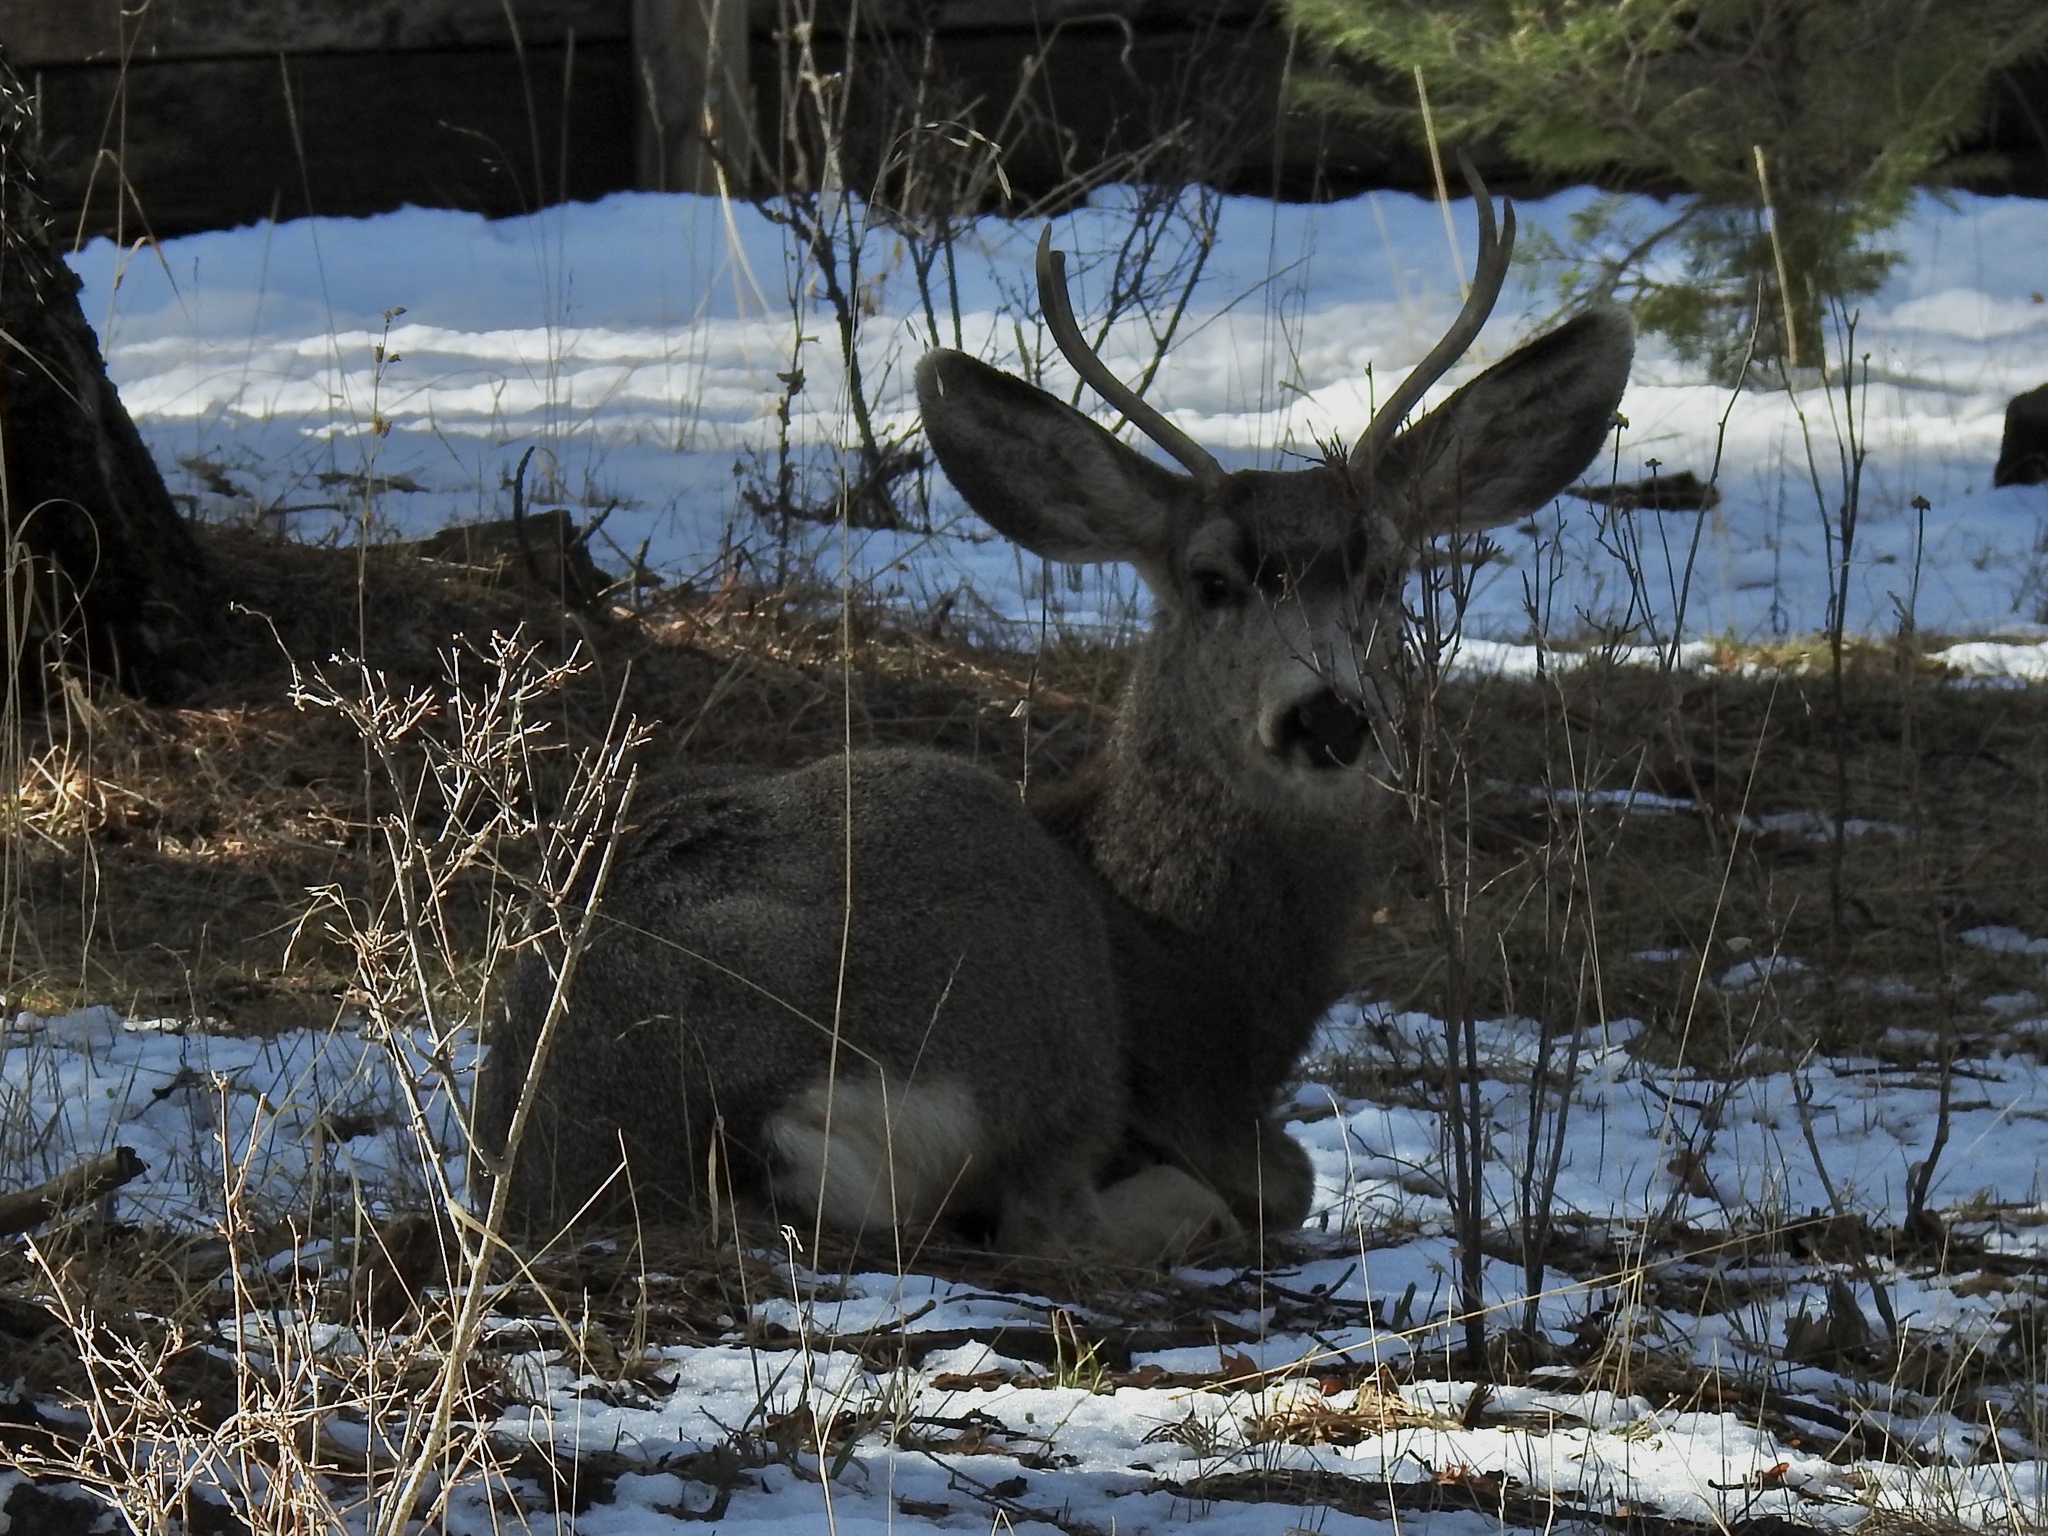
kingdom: Animalia
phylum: Chordata
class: Mammalia
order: Artiodactyla
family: Cervidae
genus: Odocoileus
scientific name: Odocoileus hemionus
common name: Mule deer
